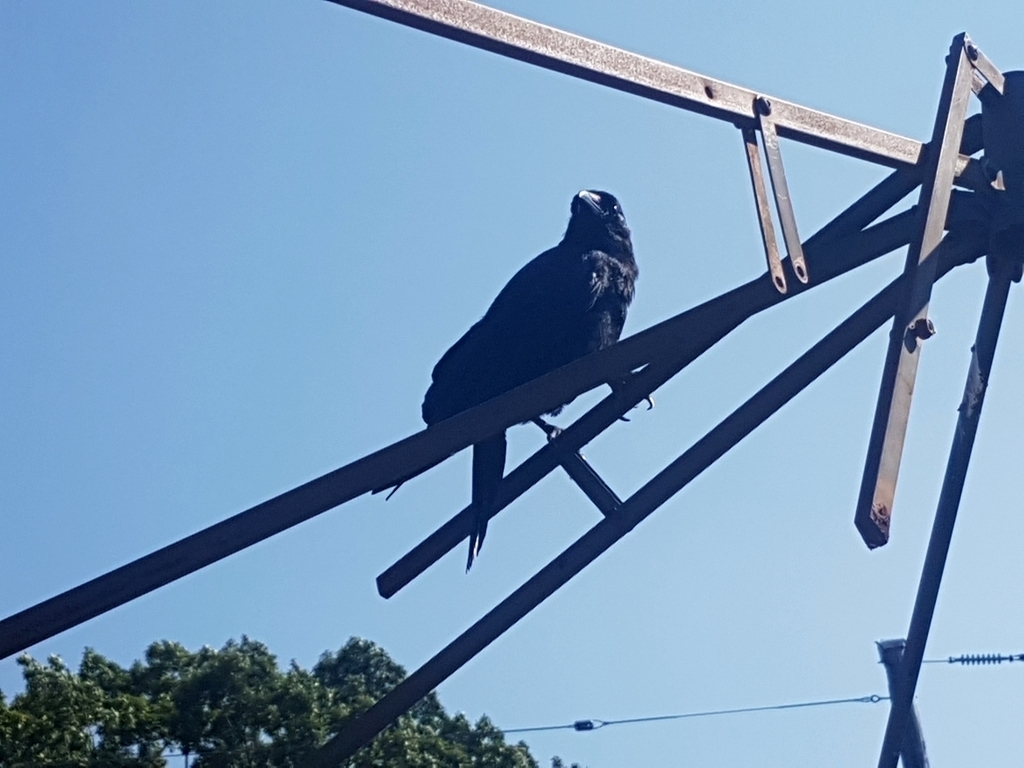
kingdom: Animalia
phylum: Chordata
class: Aves
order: Passeriformes
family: Corvidae
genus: Corvus
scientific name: Corvus brachyrhynchos
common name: American crow
